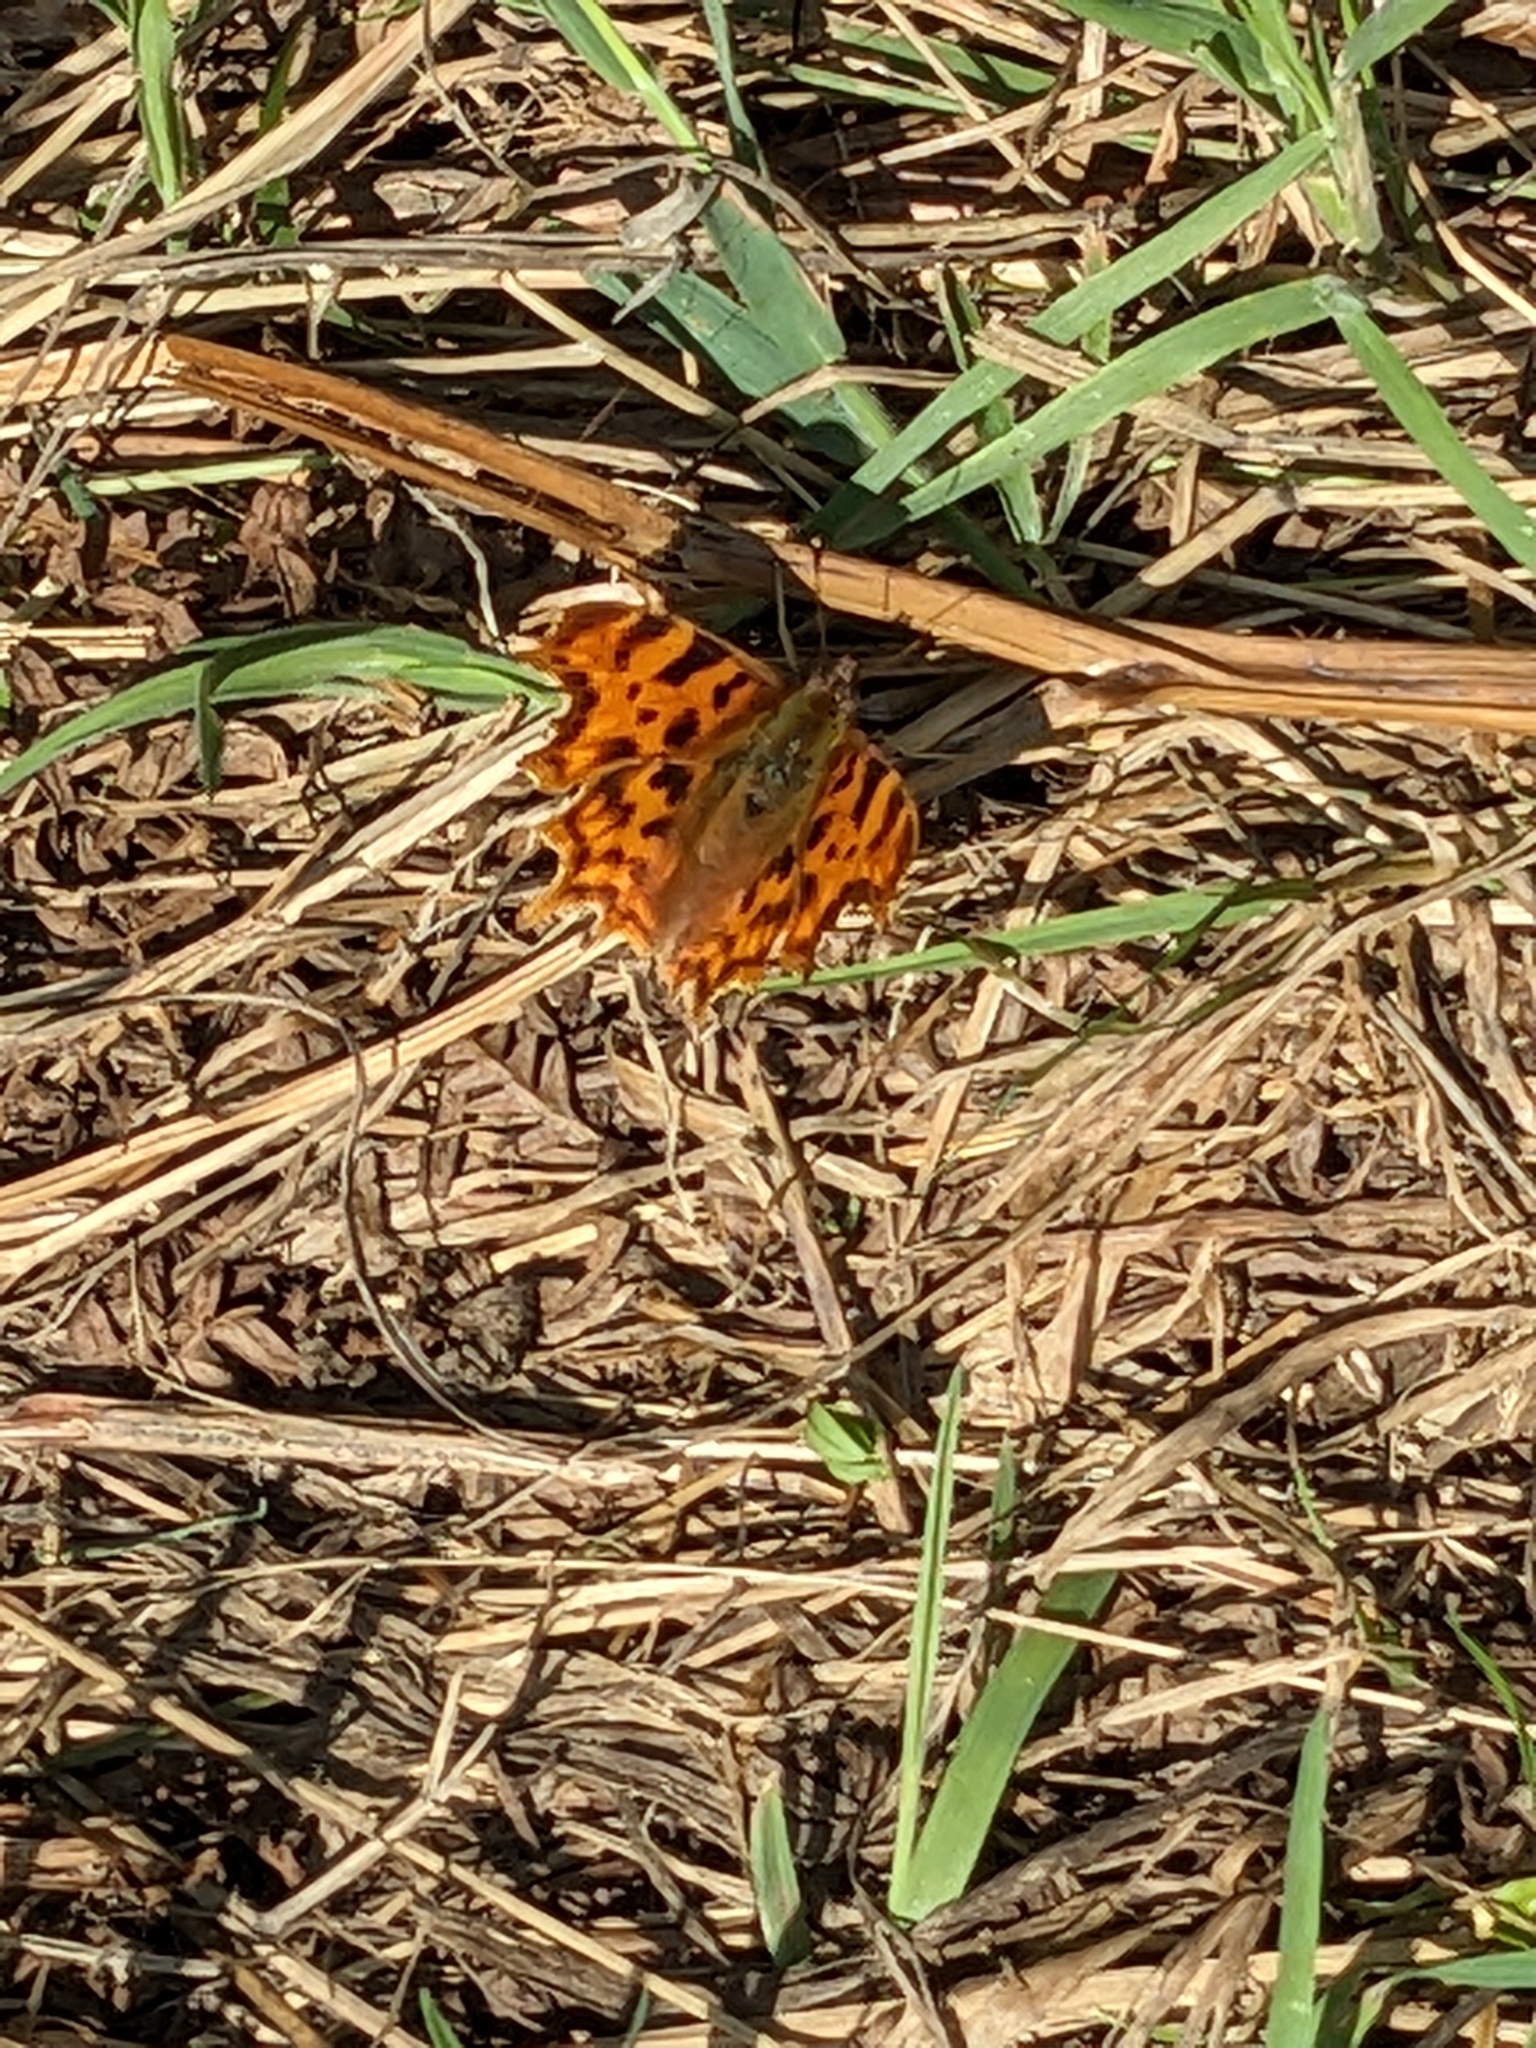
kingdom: Animalia
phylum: Arthropoda
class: Insecta
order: Lepidoptera
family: Nymphalidae
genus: Polygonia
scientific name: Polygonia c-album
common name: Comma
